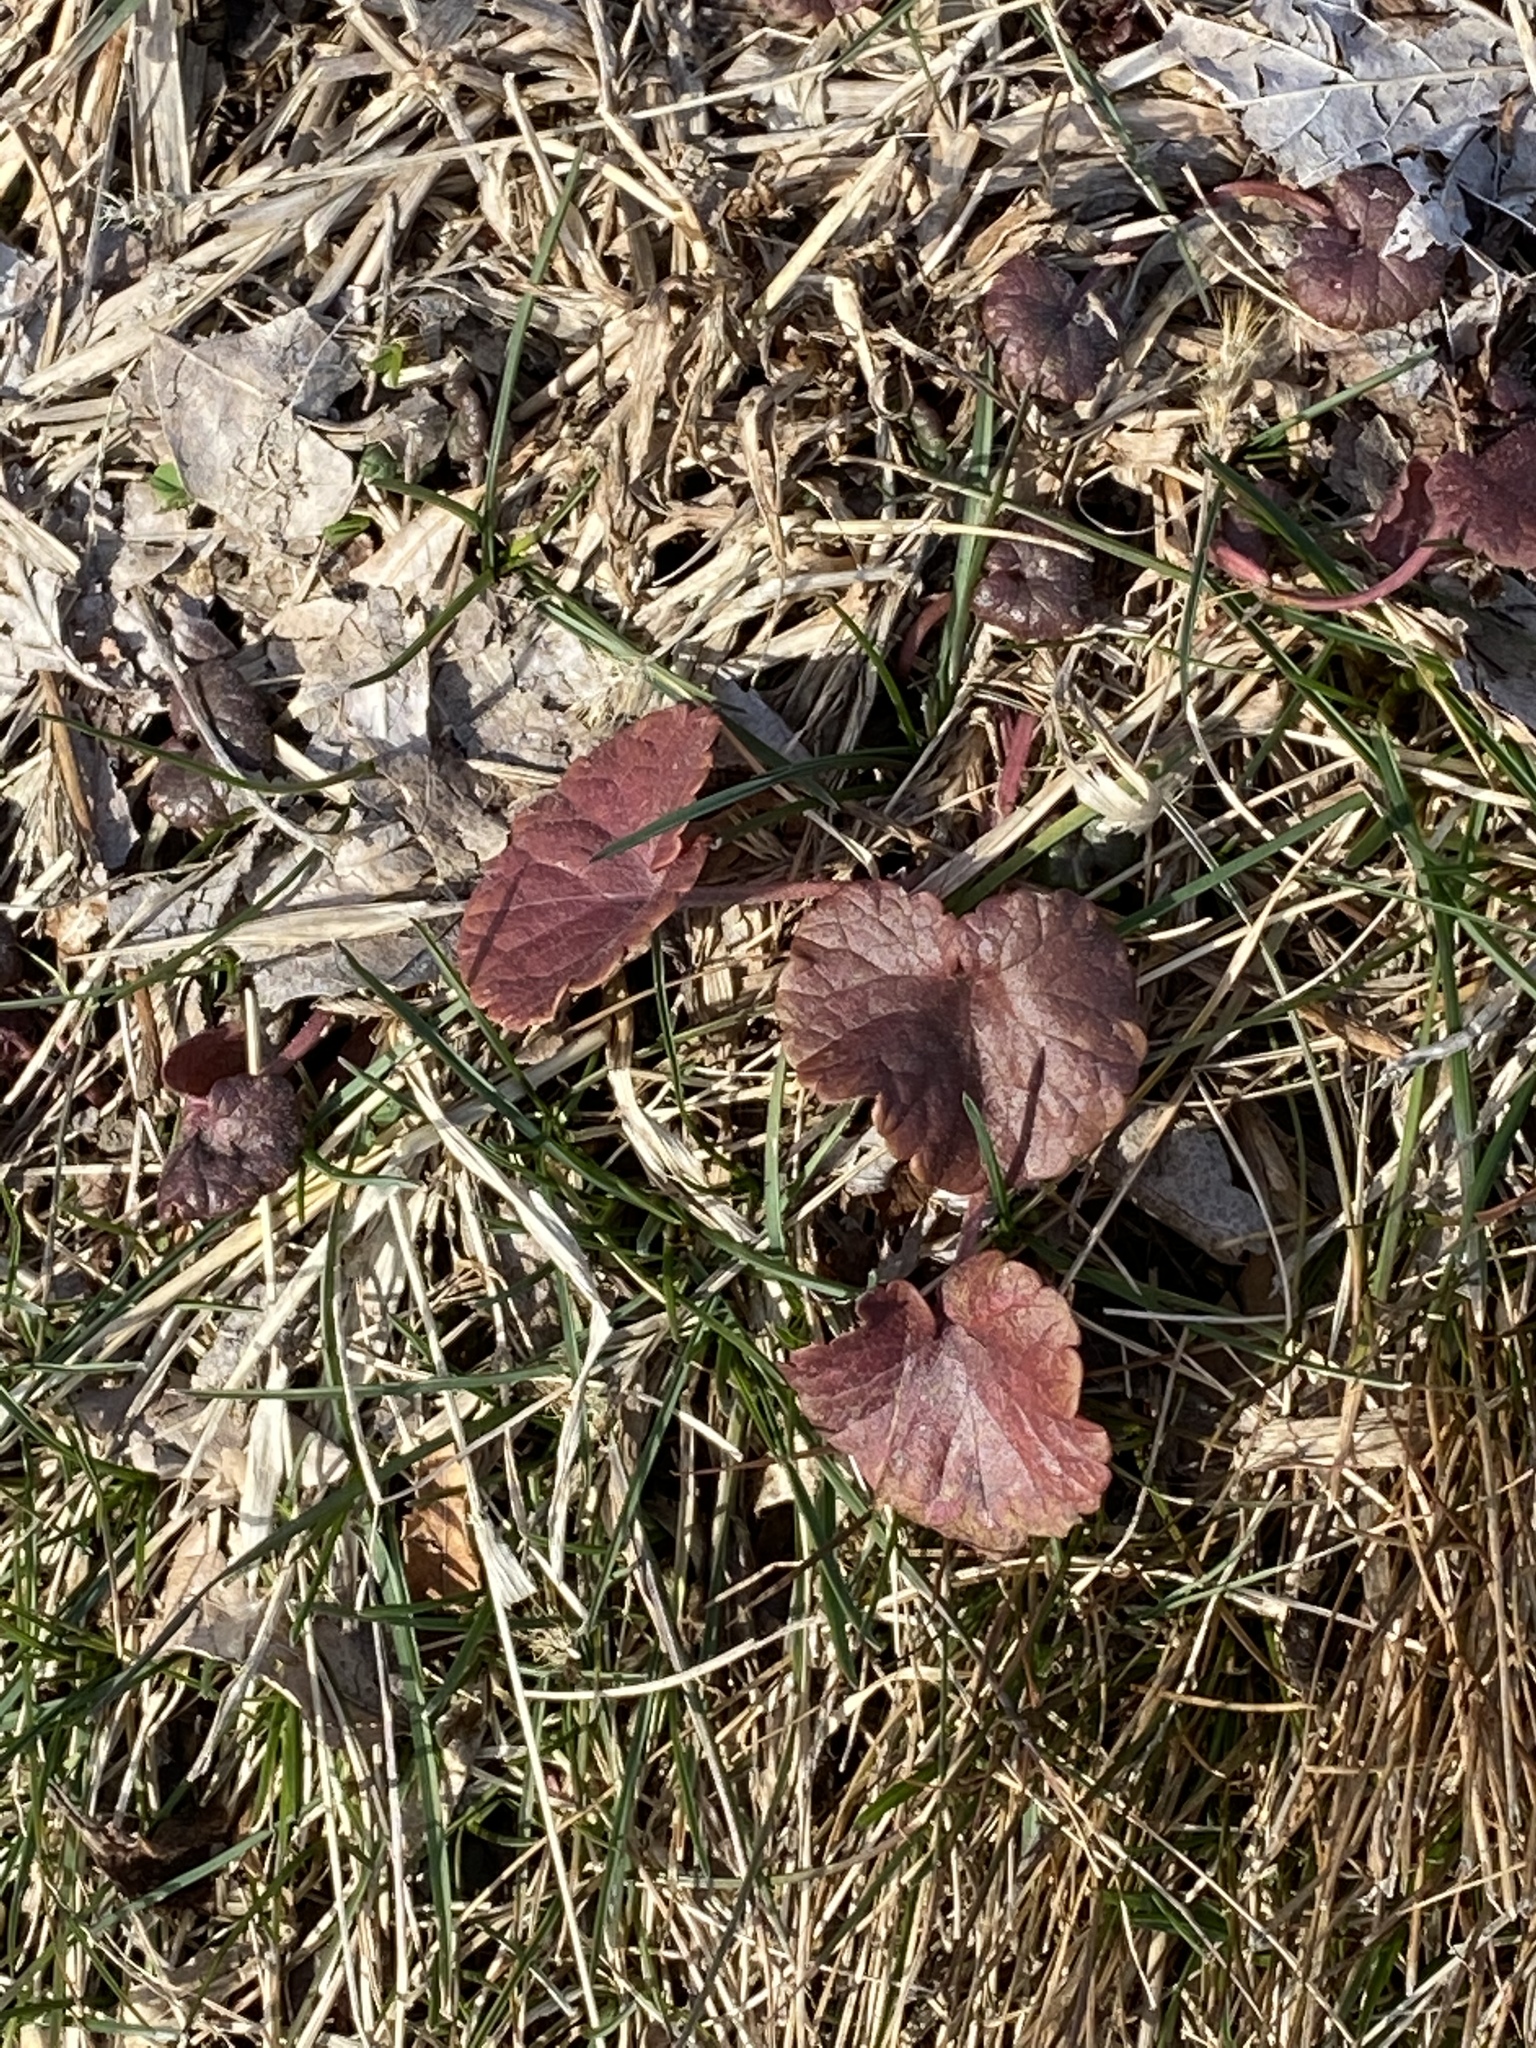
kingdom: Plantae
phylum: Tracheophyta
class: Magnoliopsida
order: Lamiales
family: Lamiaceae
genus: Glechoma
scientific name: Glechoma hederacea
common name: Ground ivy
